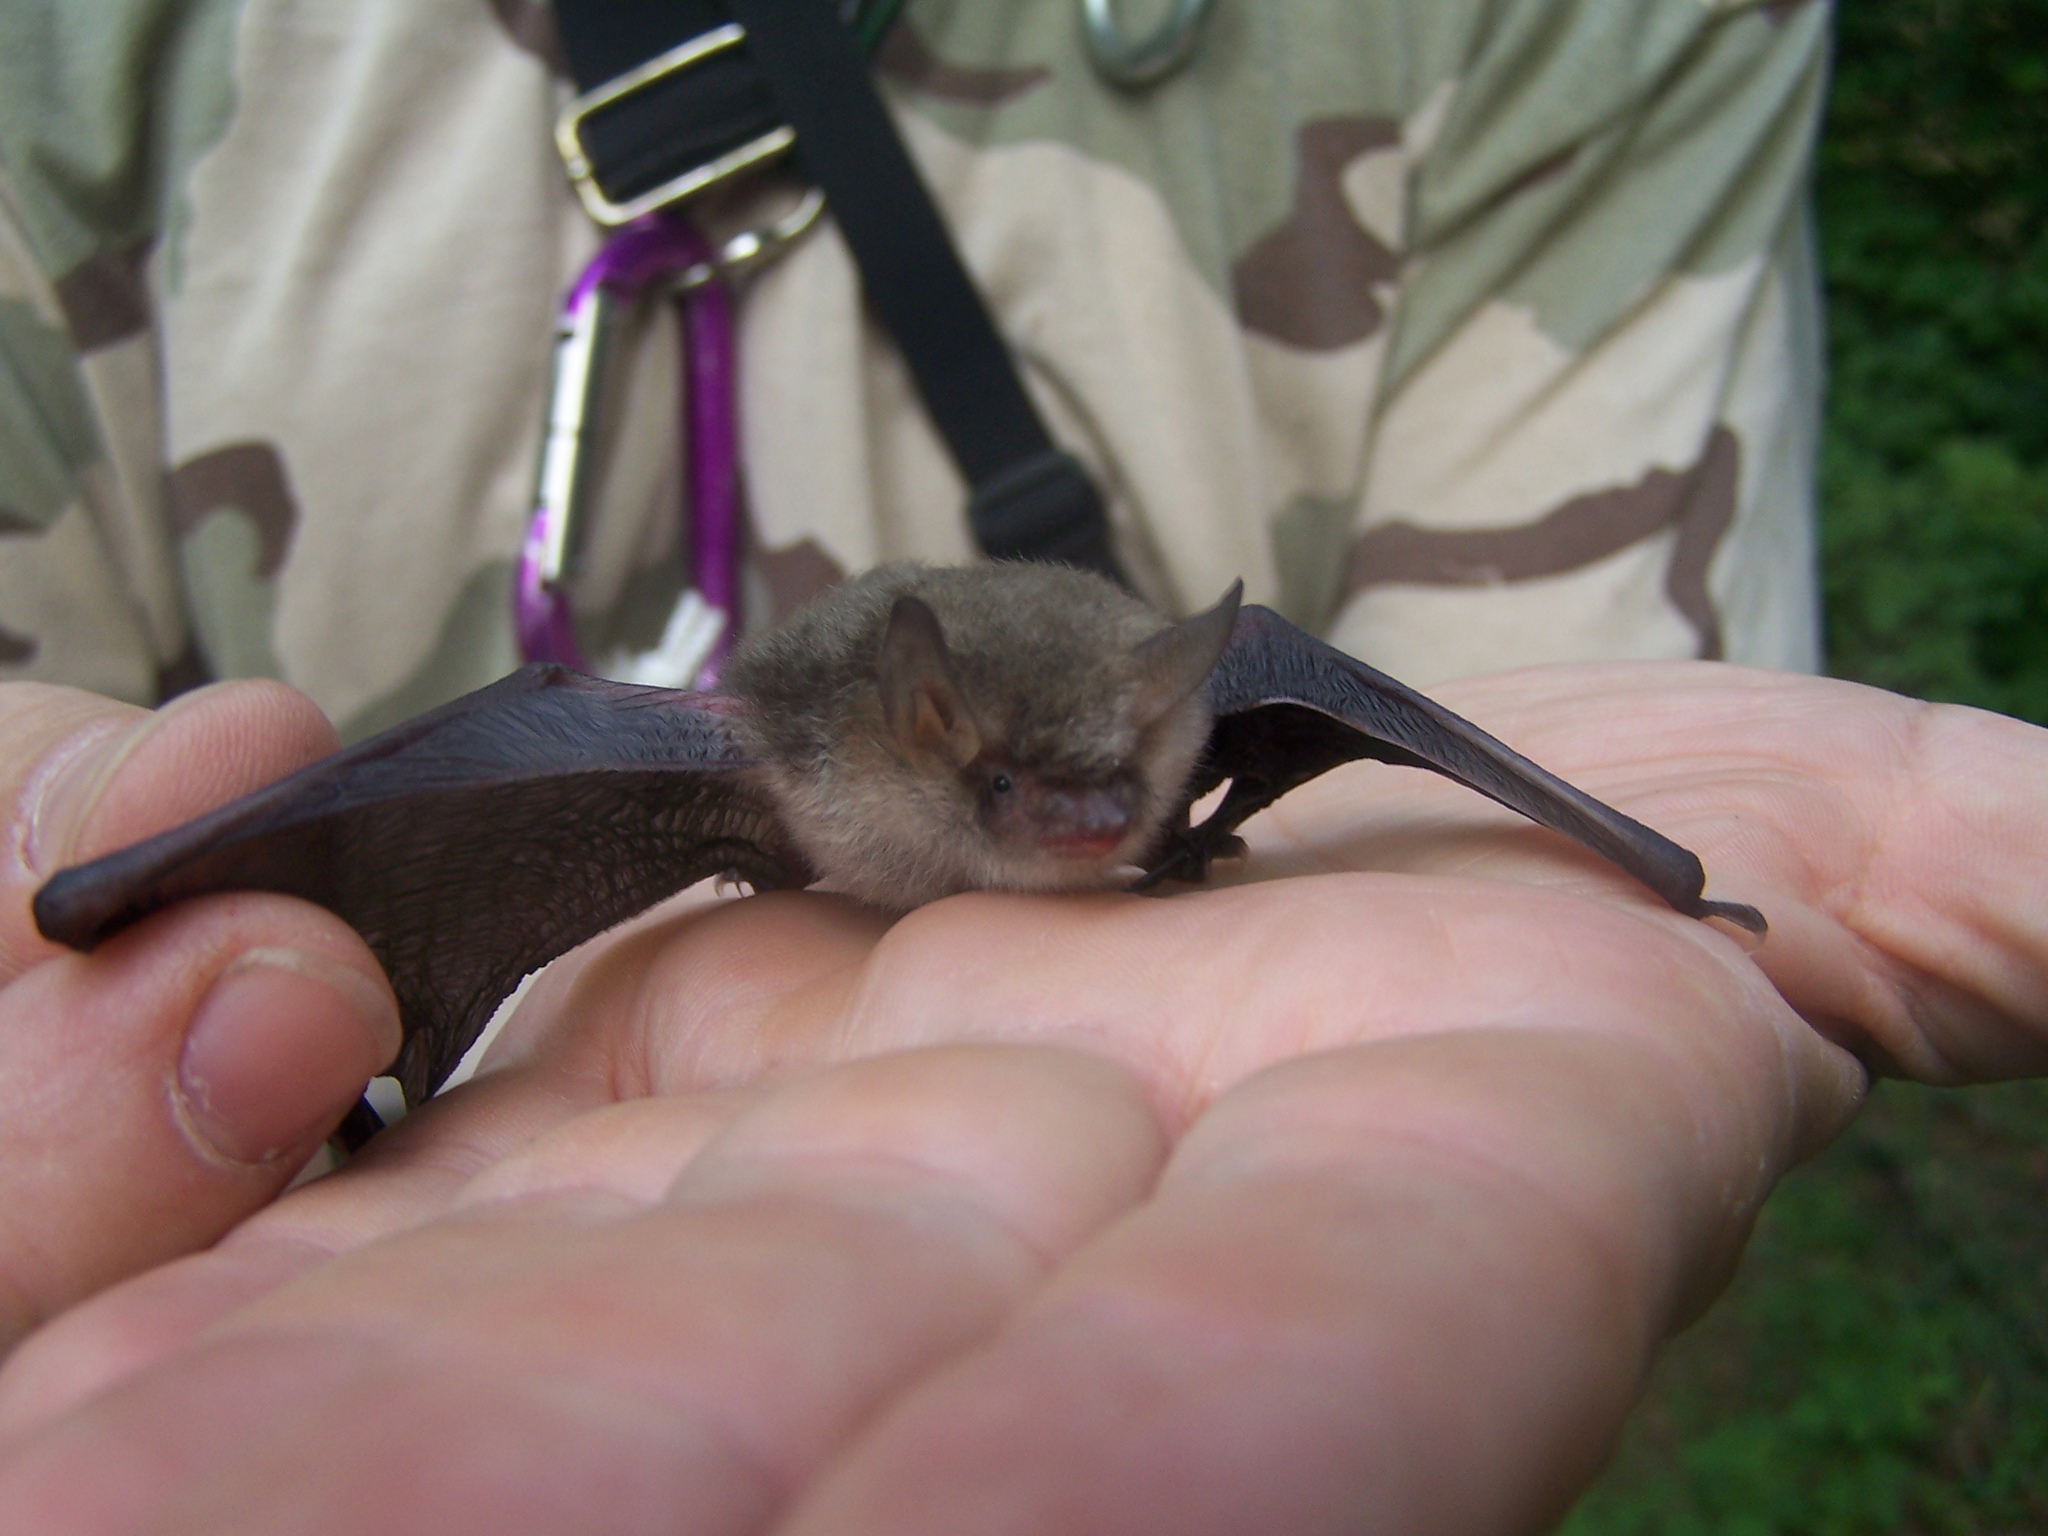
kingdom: Animalia
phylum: Chordata
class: Mammalia
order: Chiroptera
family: Vespertilionidae
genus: Myotis
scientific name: Myotis nattereri
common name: Natterer's bat
